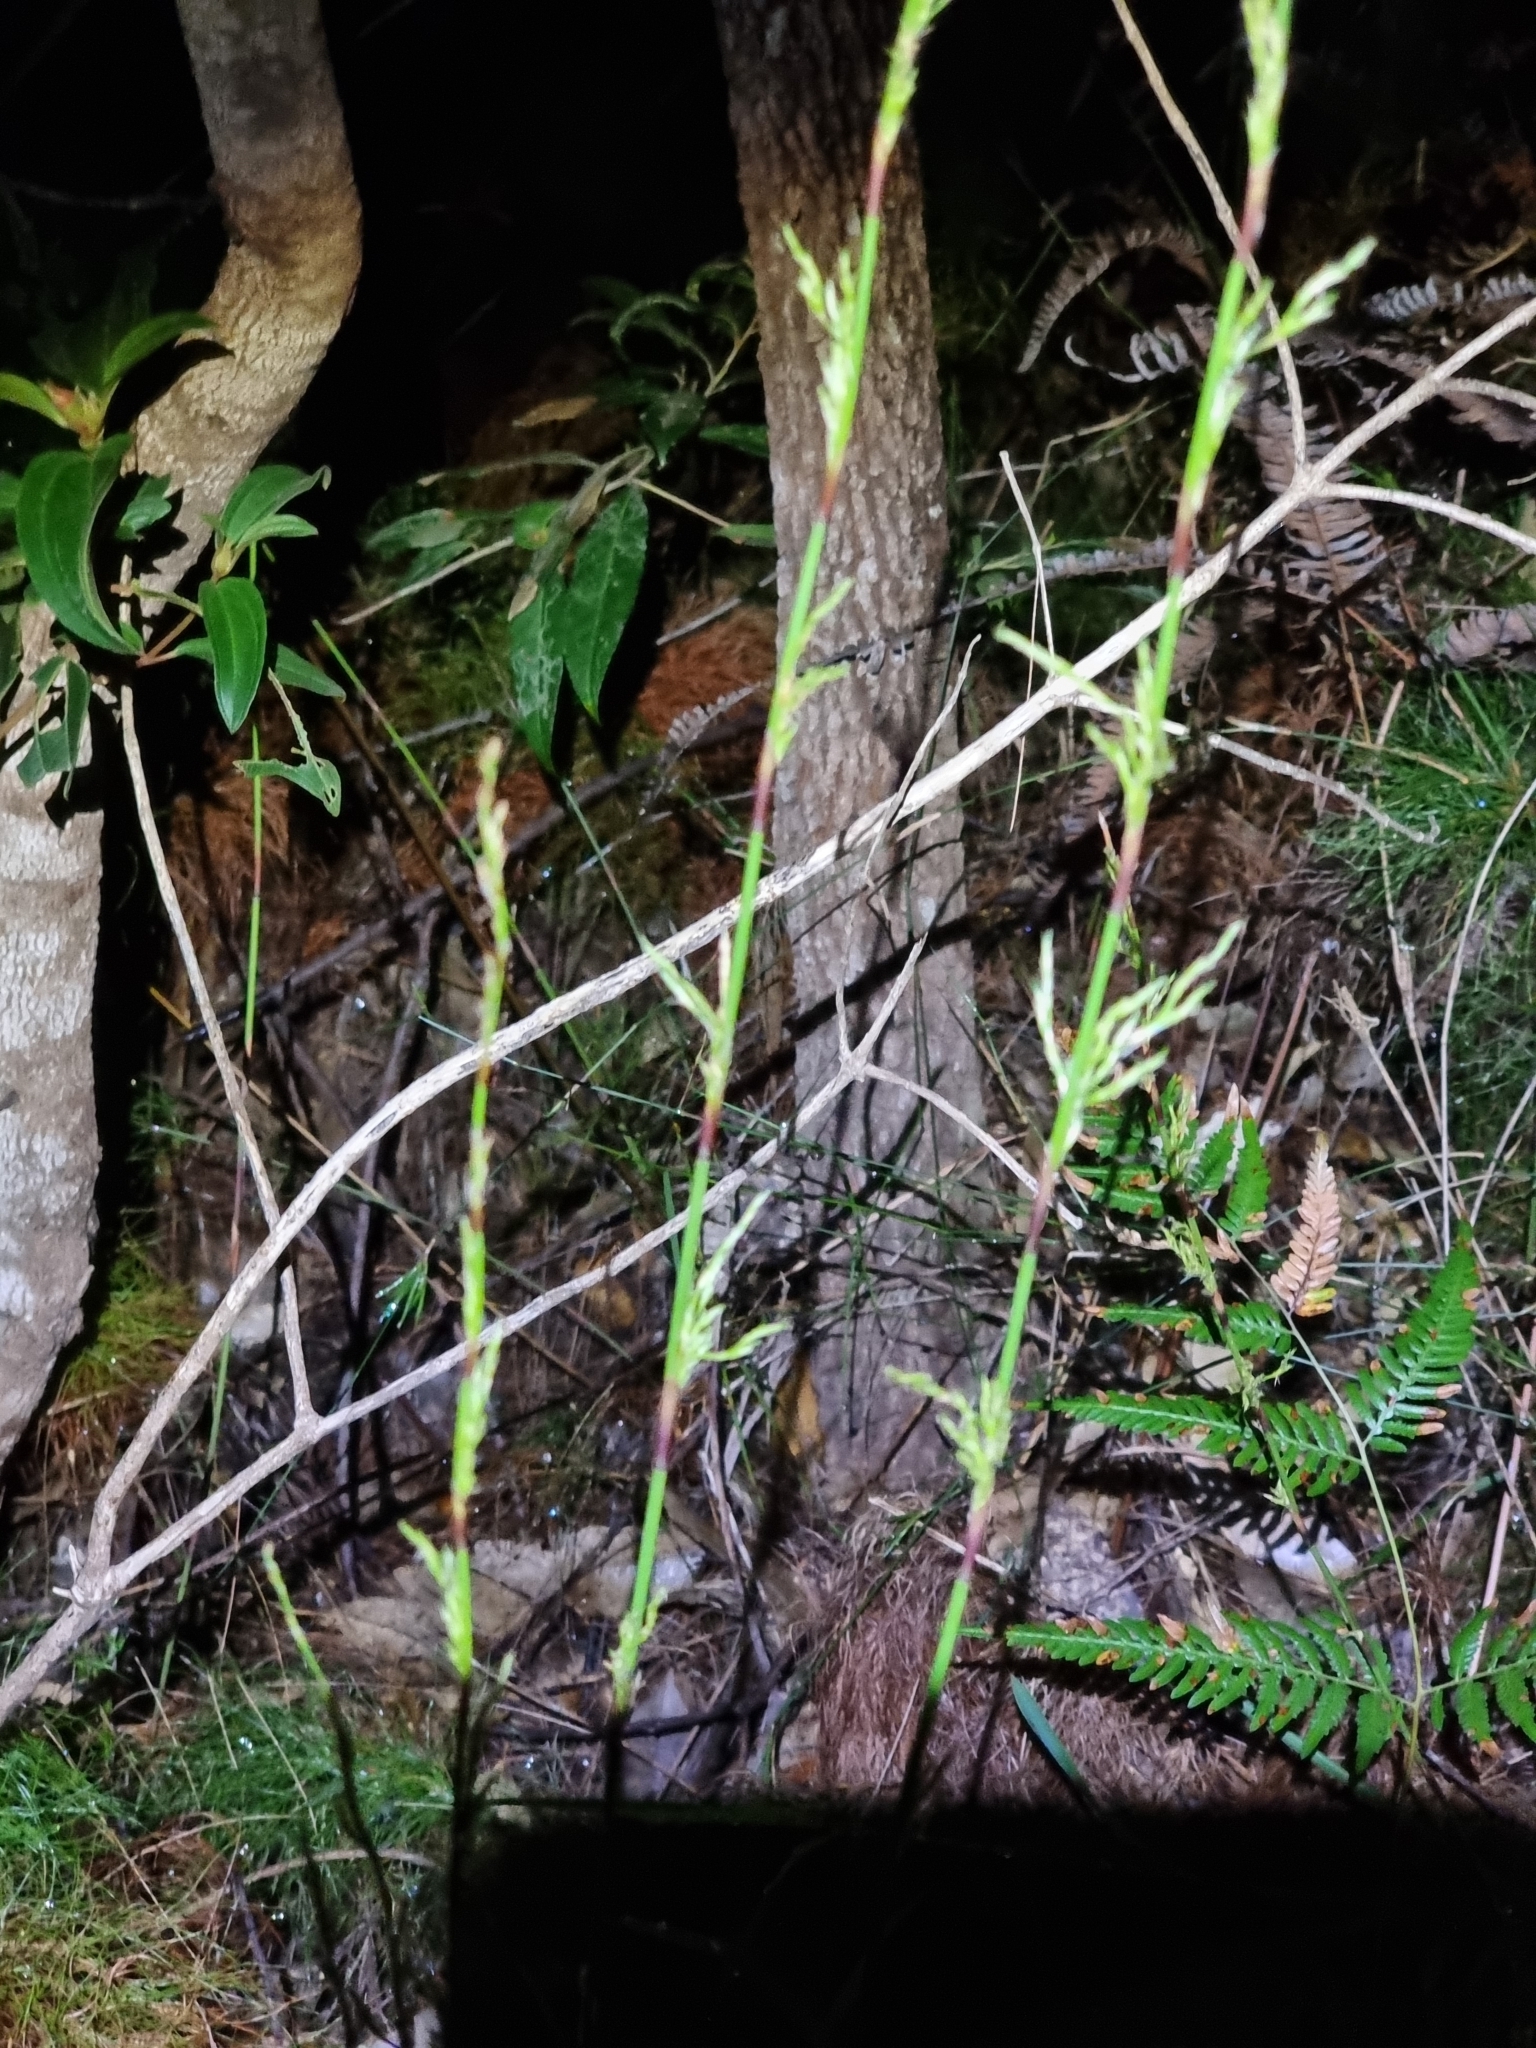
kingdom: Plantae
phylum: Tracheophyta
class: Liliopsida
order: Poales
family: Restionaceae
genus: Baloskion
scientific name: Baloskion tetraphyllum
